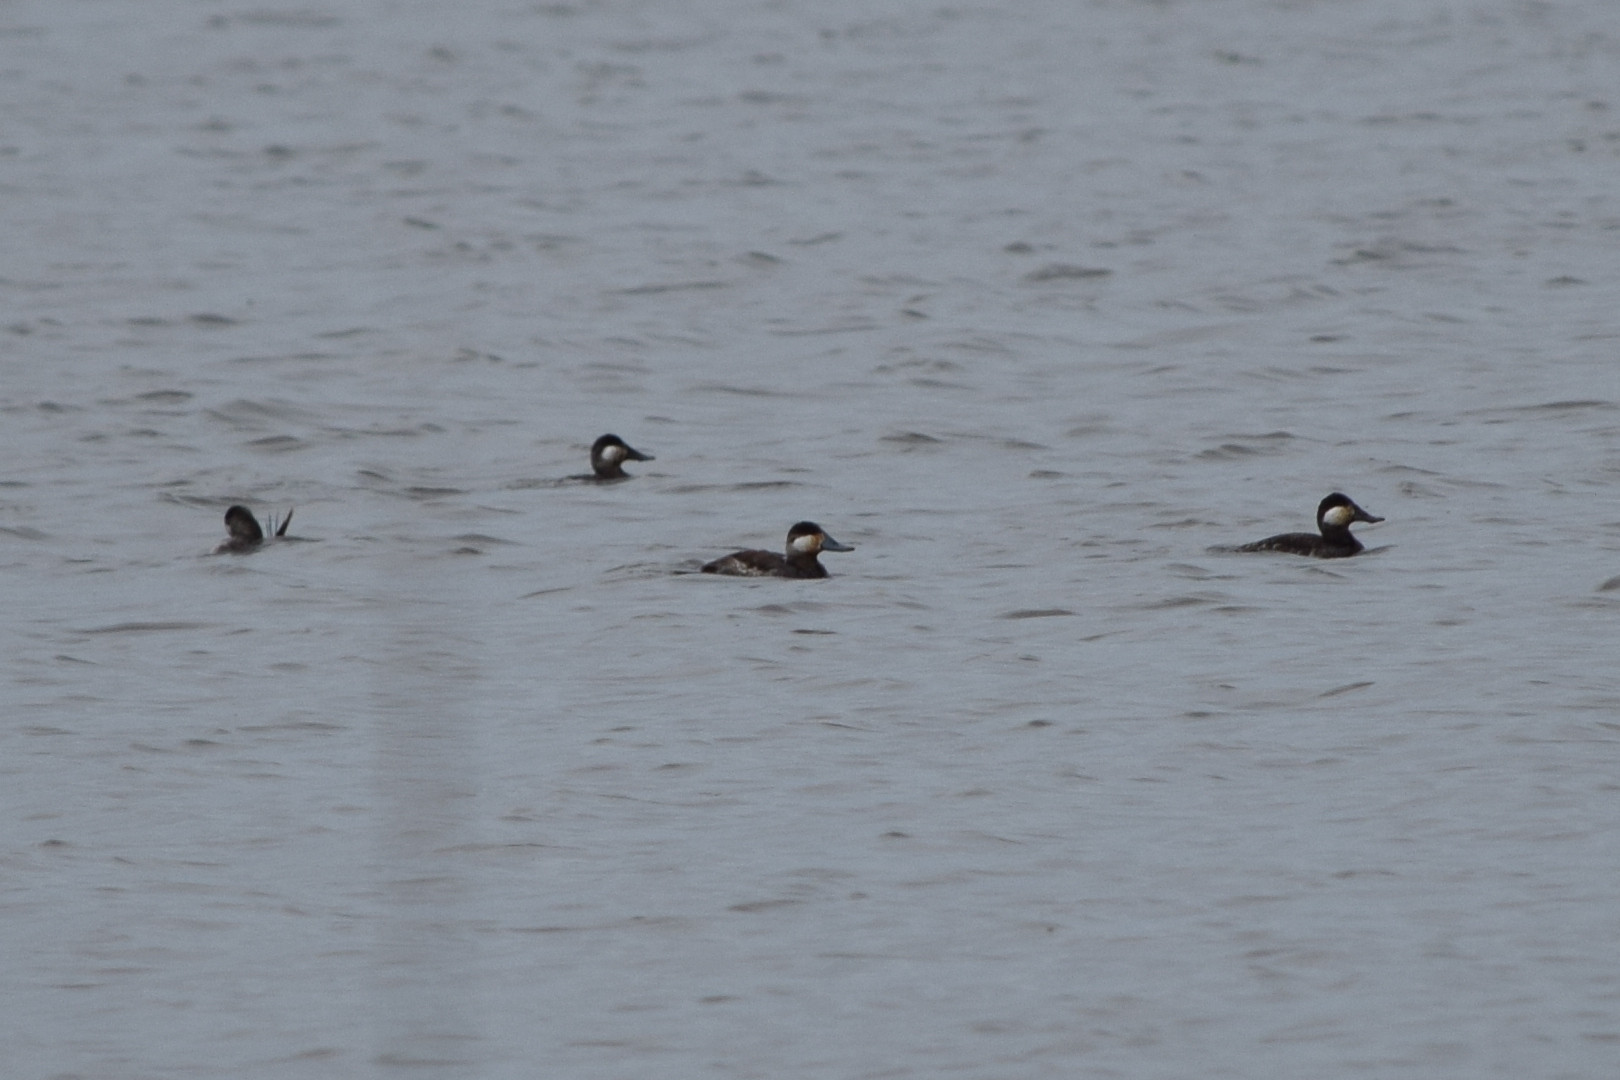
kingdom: Animalia
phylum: Chordata
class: Aves
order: Anseriformes
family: Anatidae
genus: Oxyura
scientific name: Oxyura jamaicensis
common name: Ruddy duck
